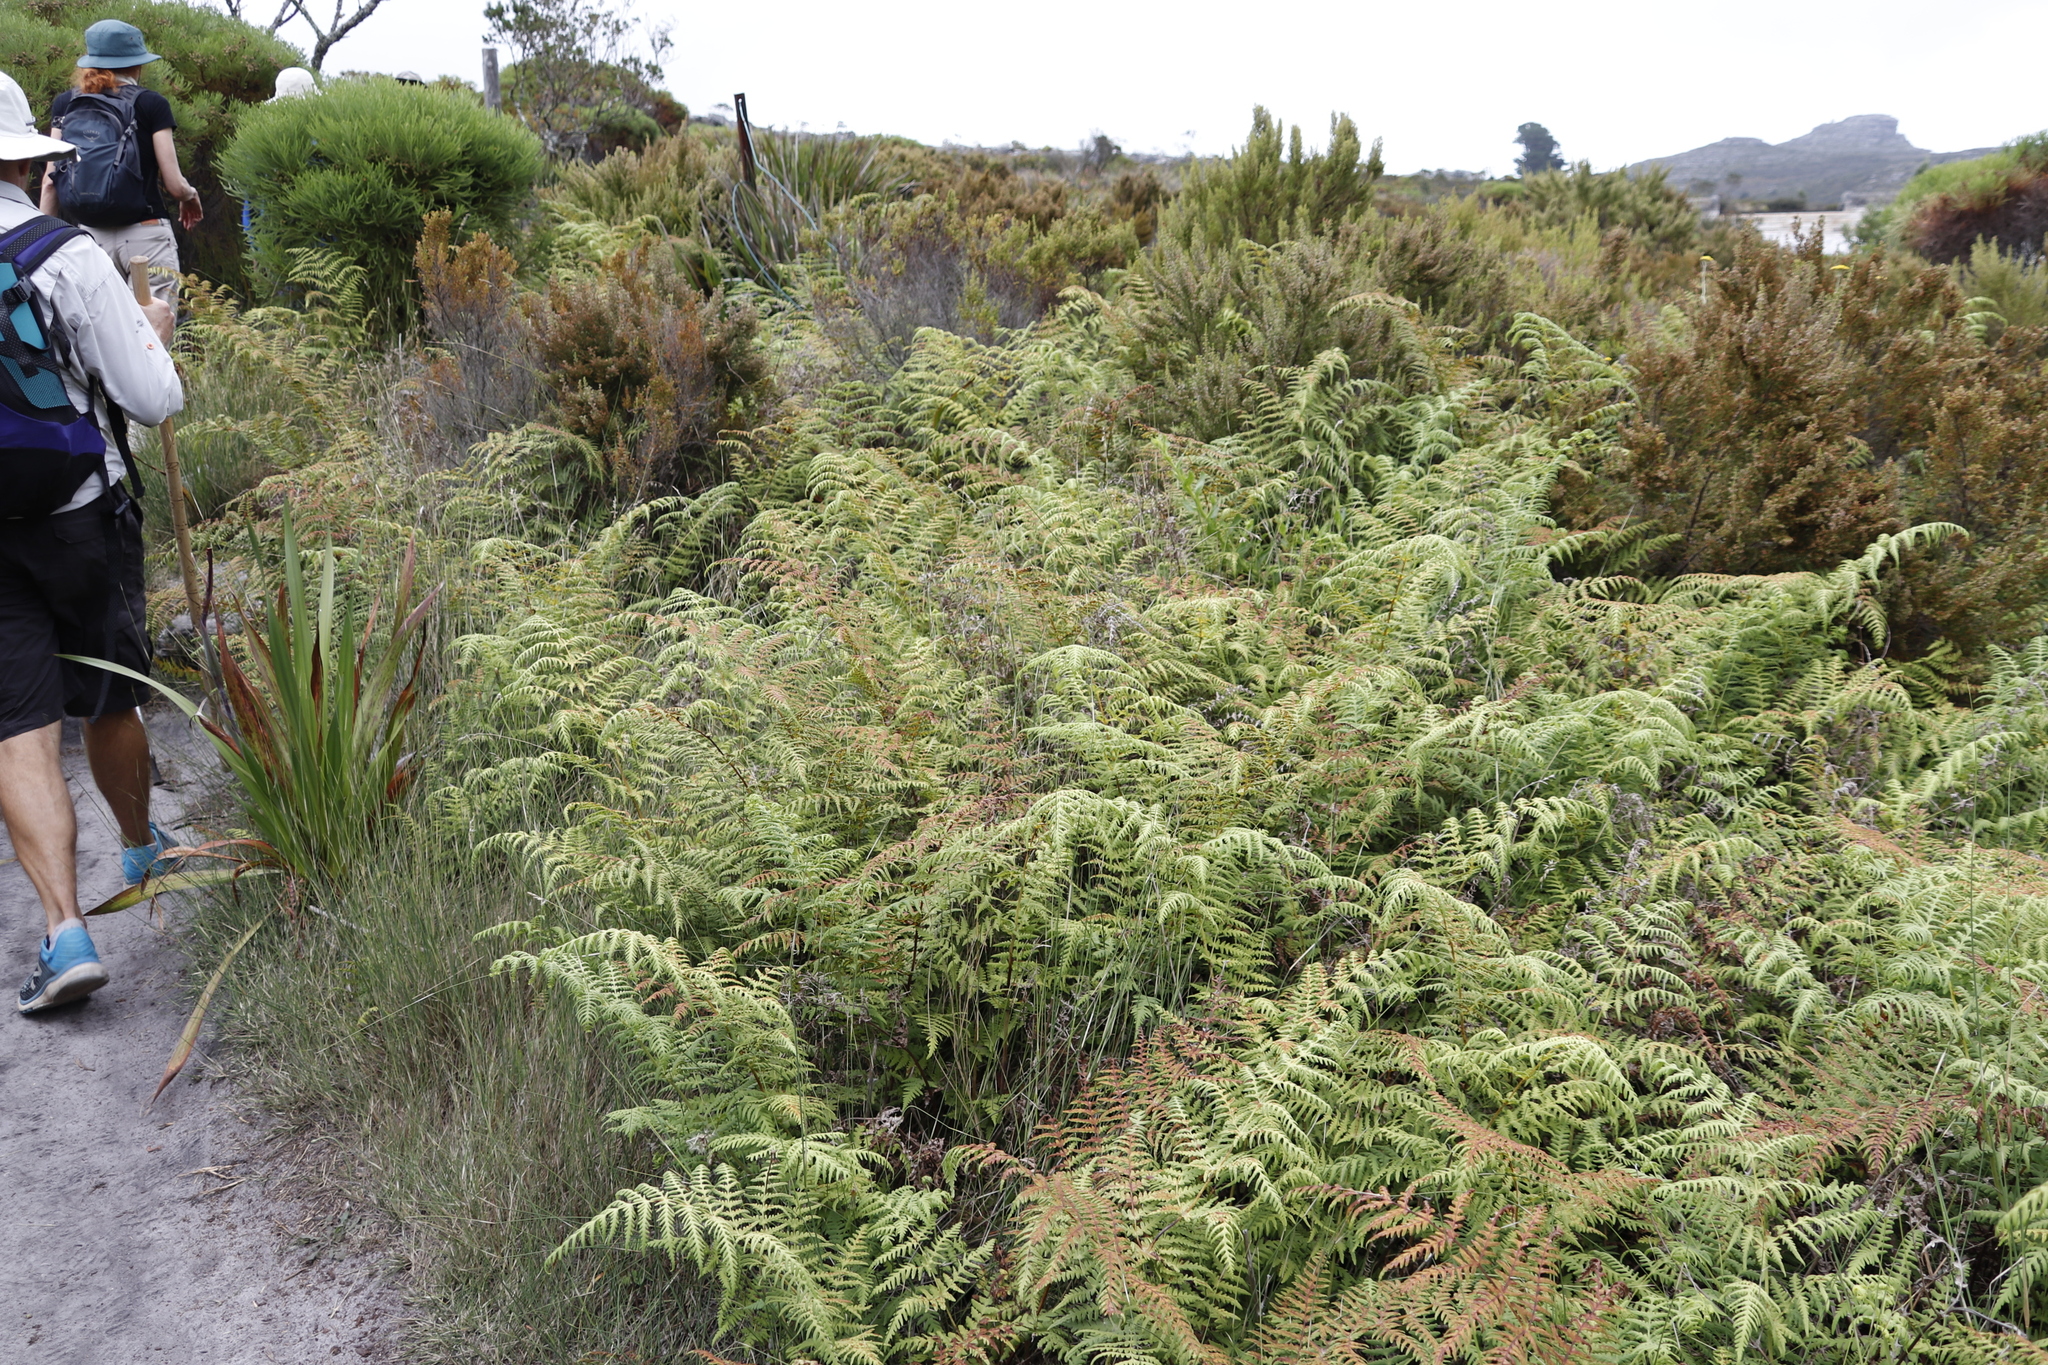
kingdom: Plantae
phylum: Tracheophyta
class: Polypodiopsida
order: Polypodiales
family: Dennstaedtiaceae
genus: Pteridium
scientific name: Pteridium aquilinum
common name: Bracken
